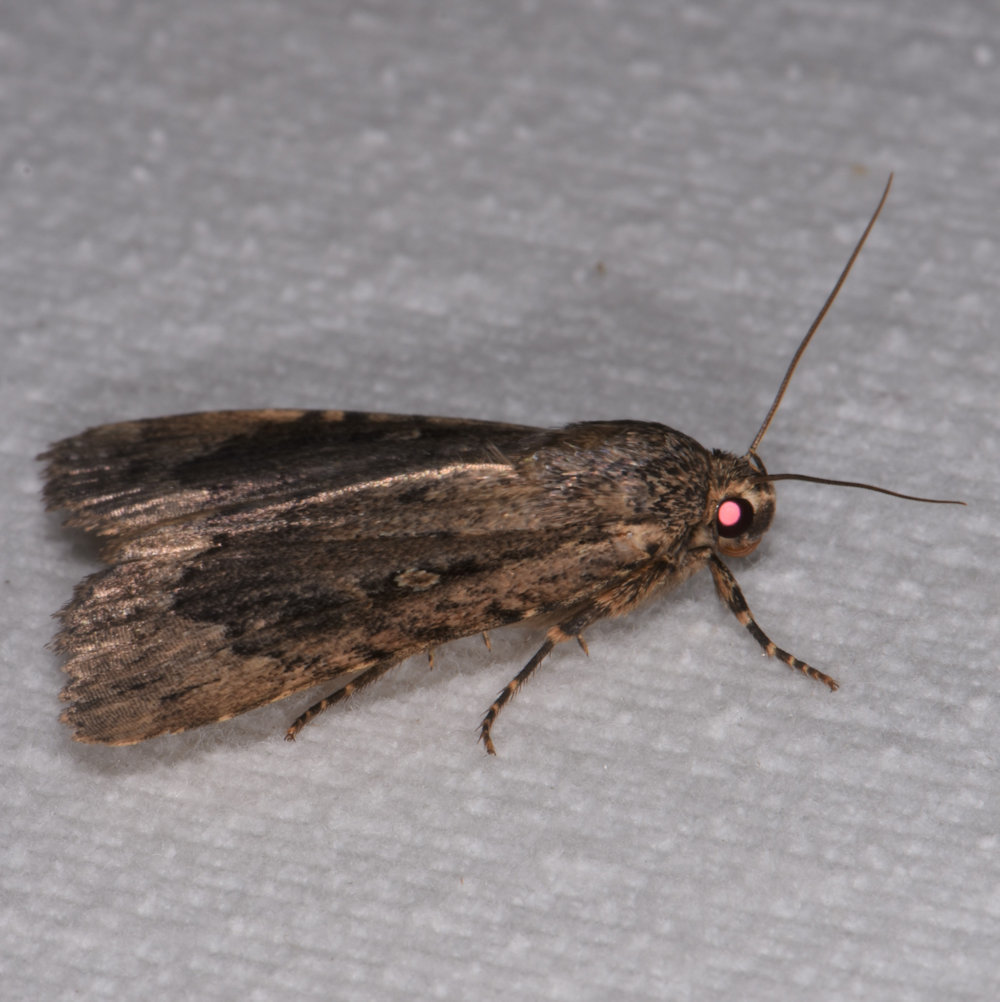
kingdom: Animalia
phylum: Arthropoda
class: Insecta
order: Lepidoptera
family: Noctuidae
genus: Amphipyra
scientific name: Amphipyra pyramidoides
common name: American copper underwing
